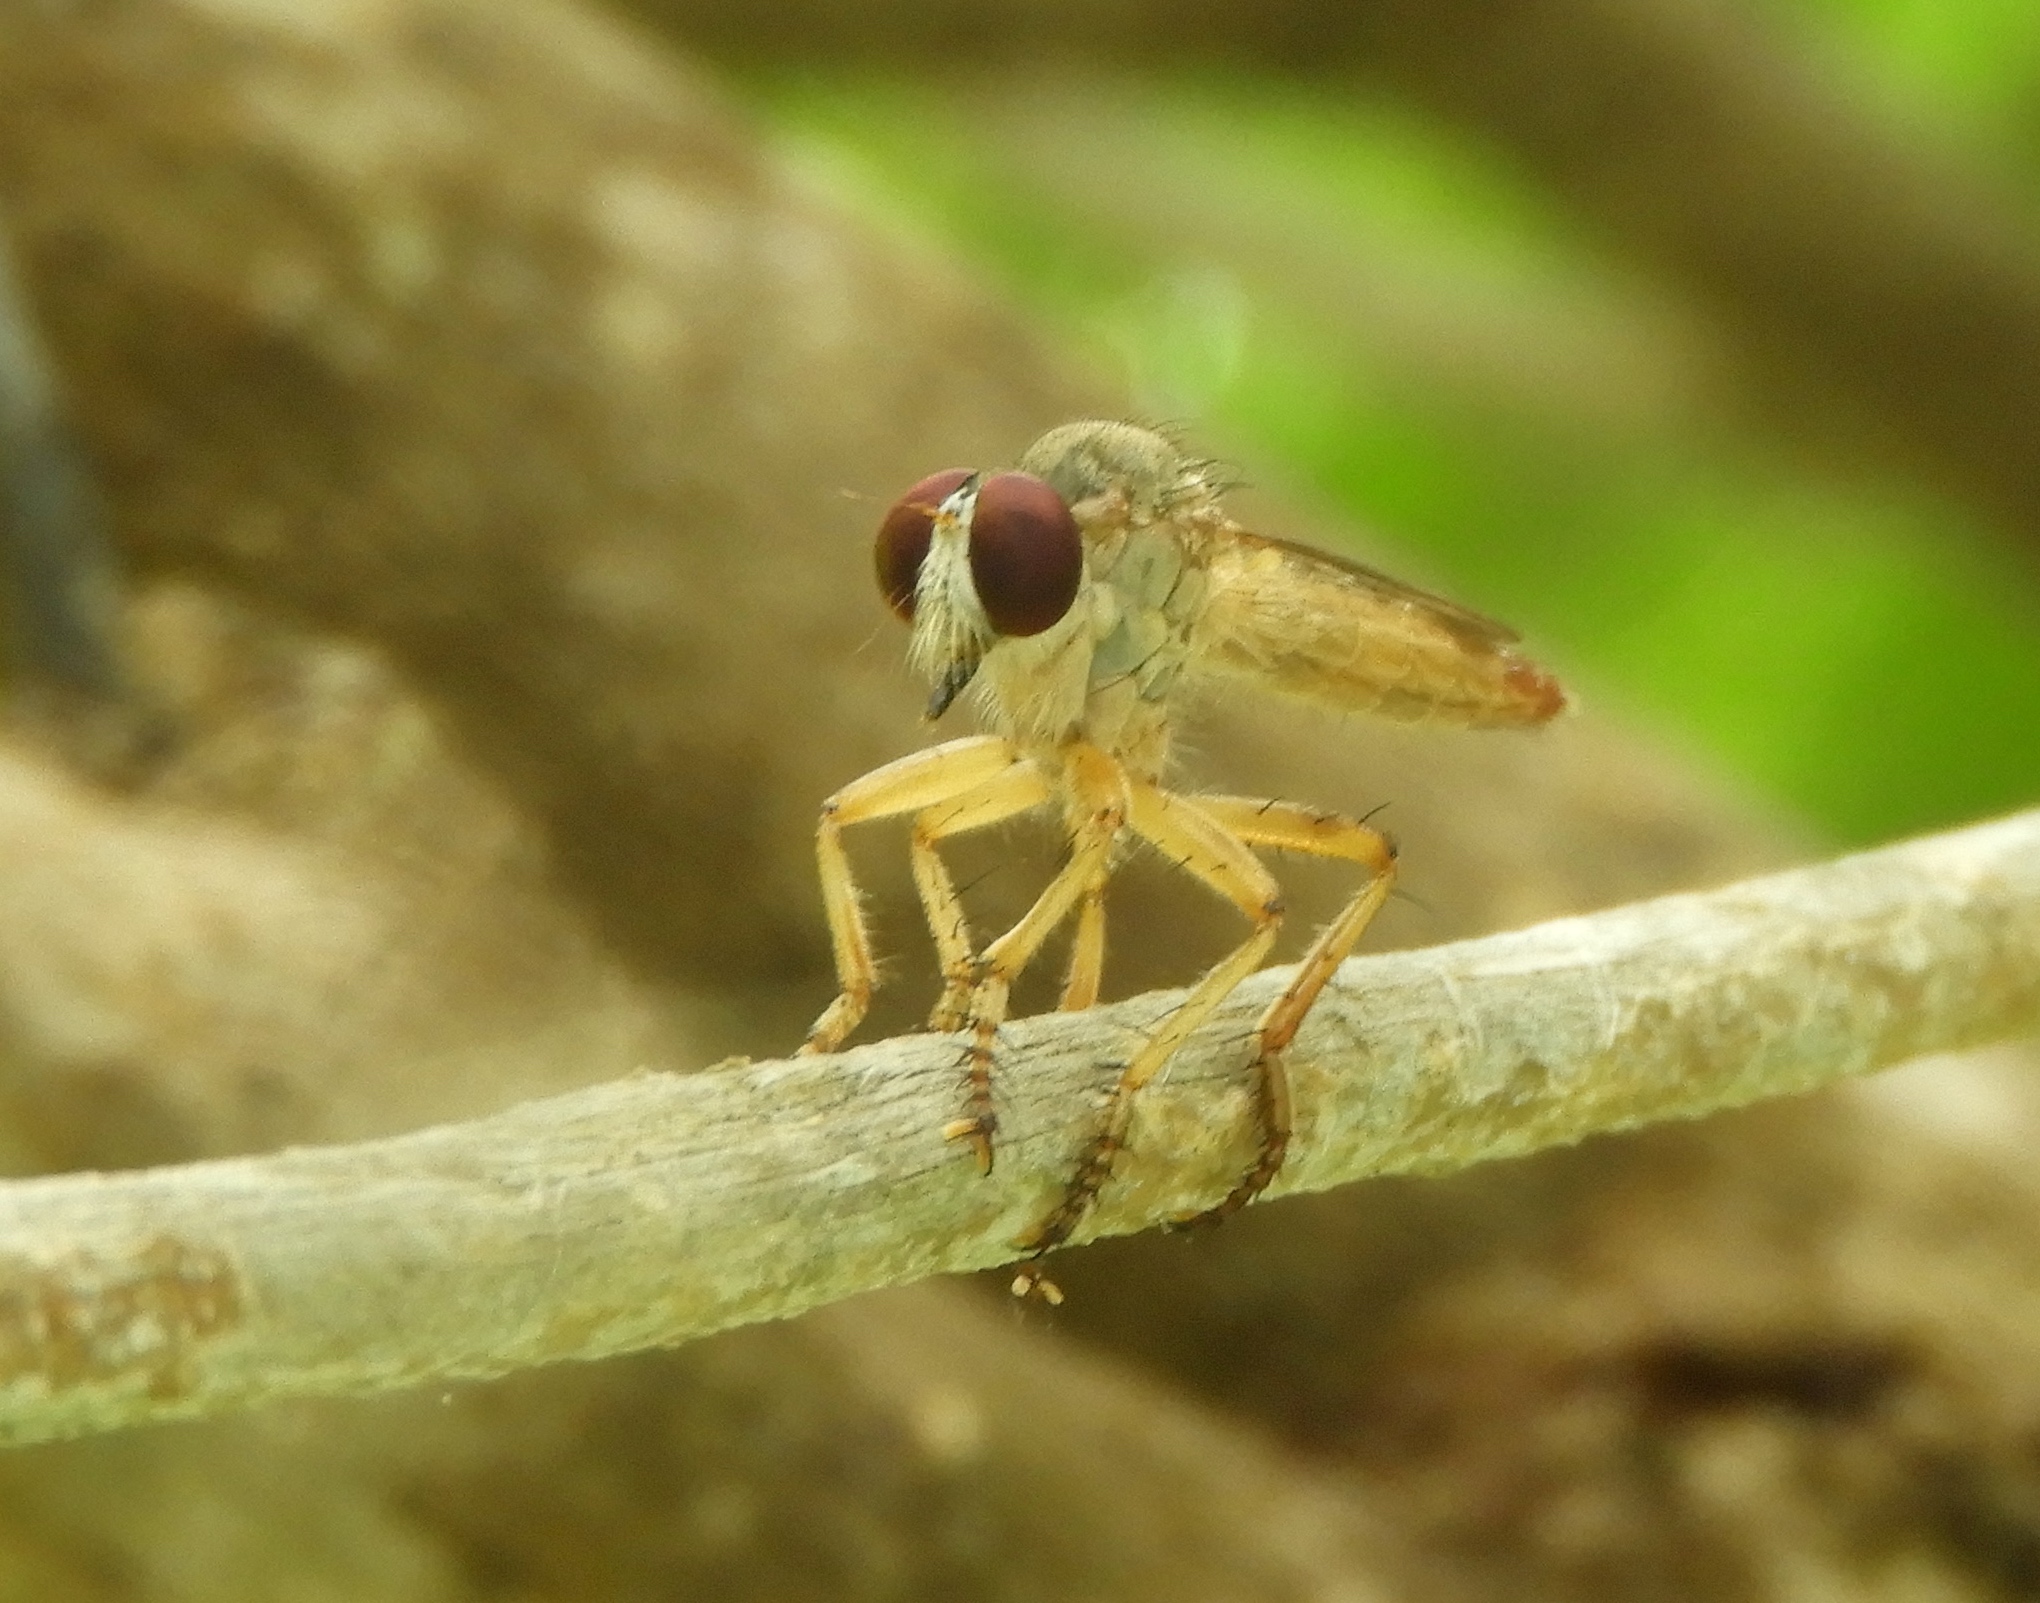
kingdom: Animalia
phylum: Arthropoda
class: Insecta
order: Diptera
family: Asilidae
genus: Ommatius
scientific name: Ommatius
